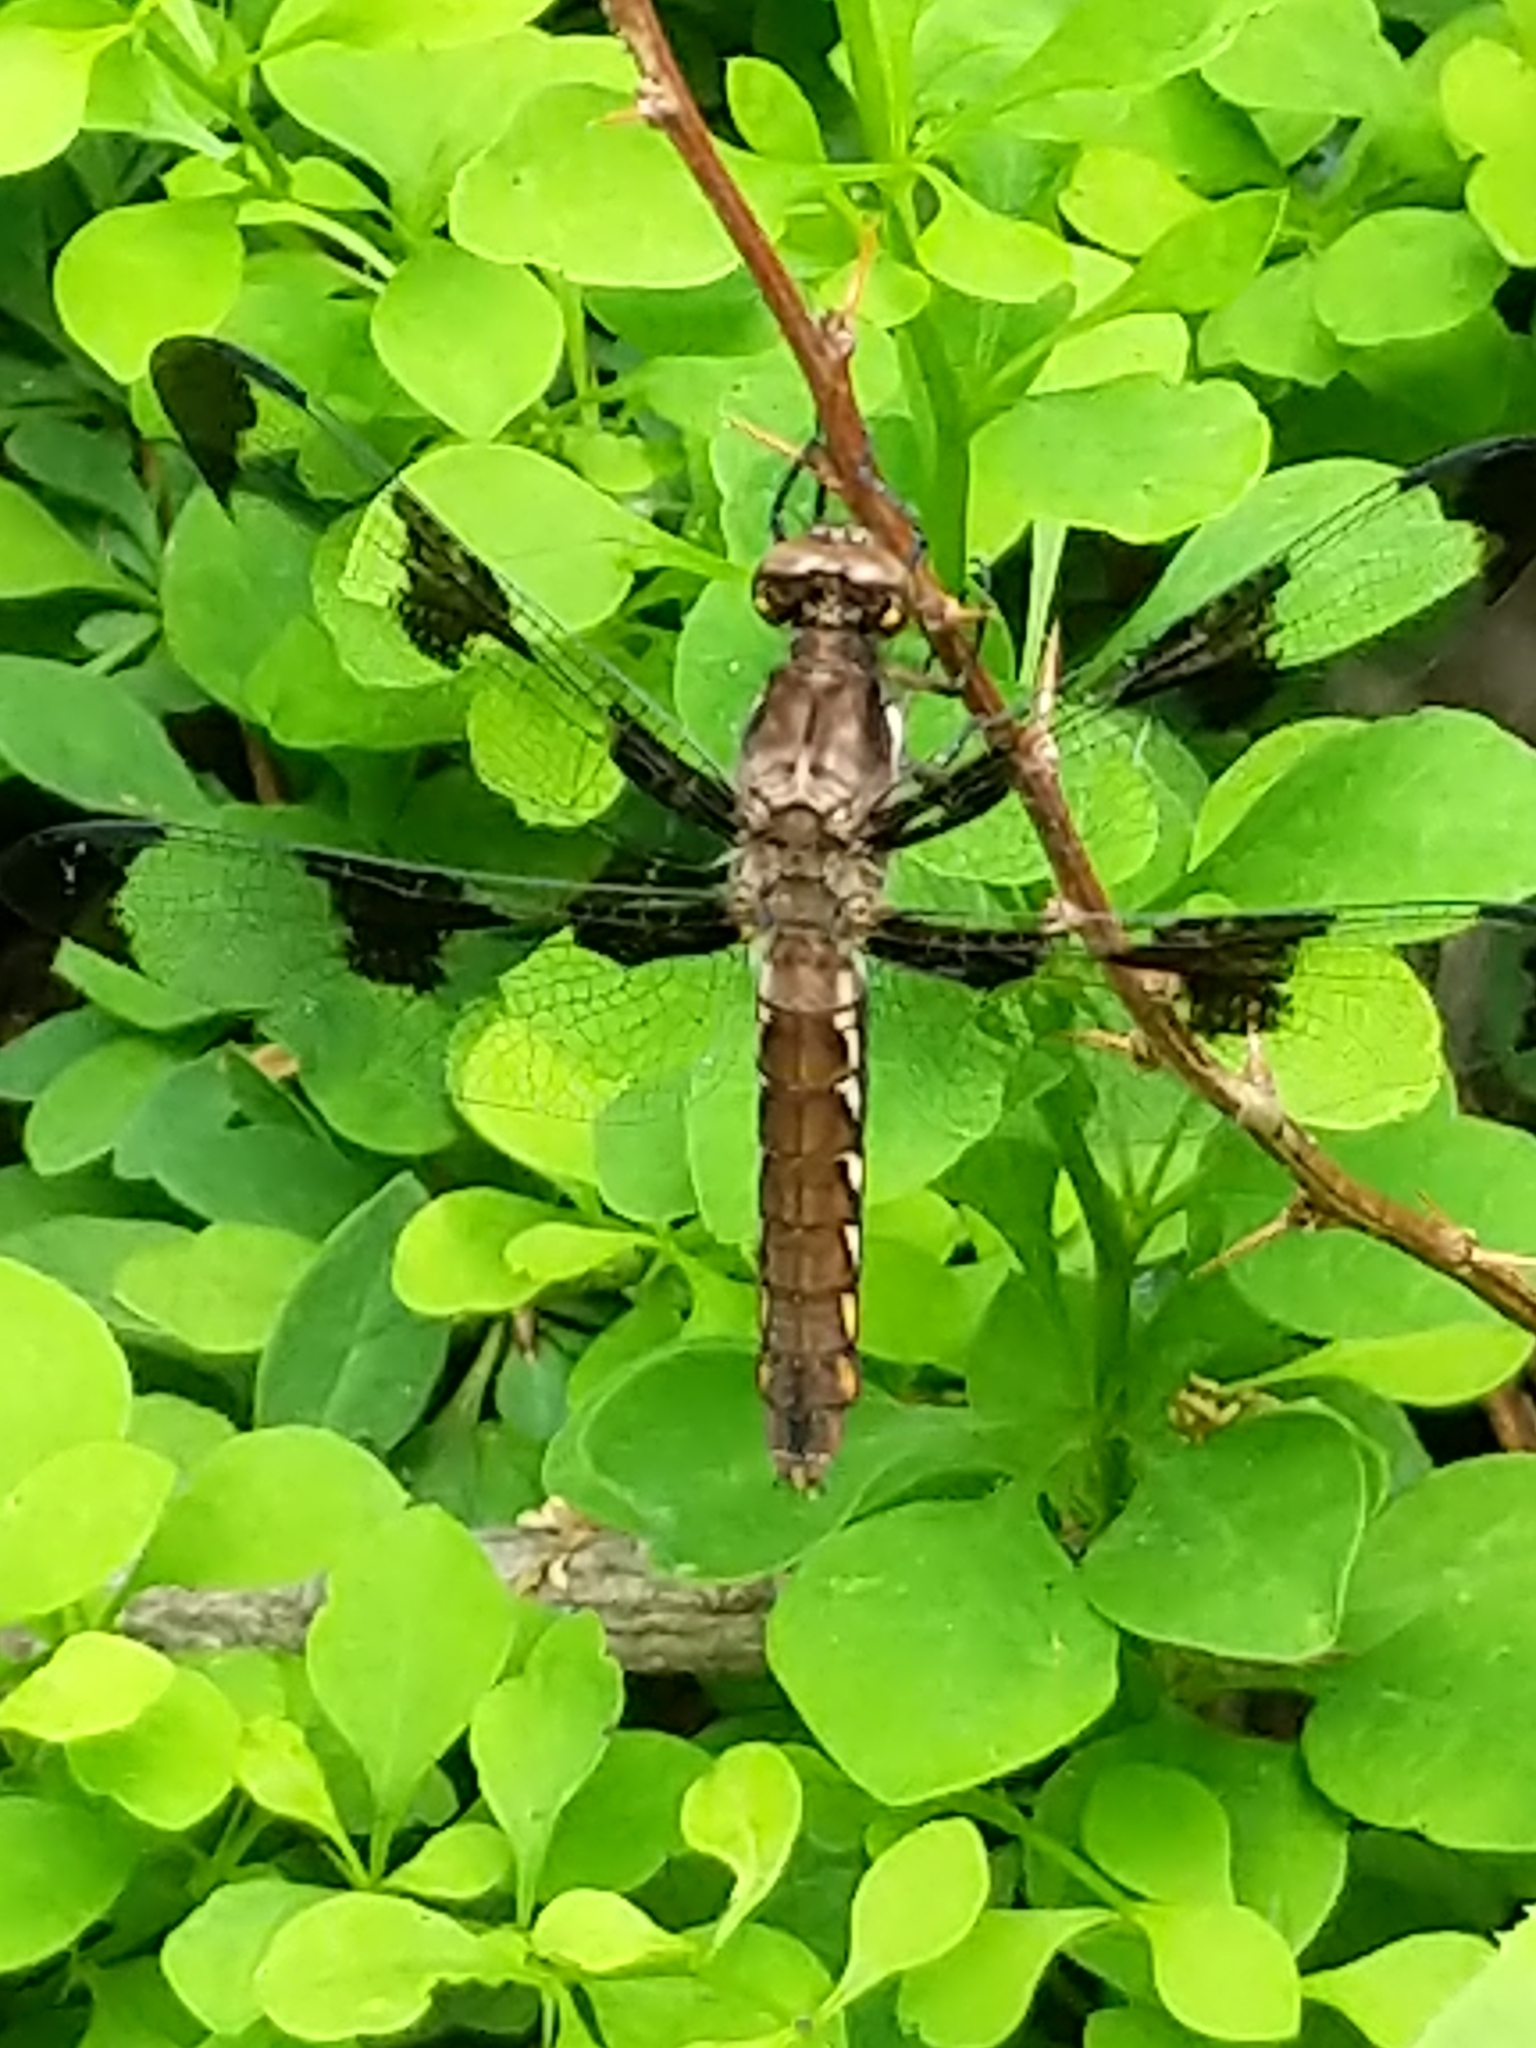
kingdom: Animalia
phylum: Arthropoda
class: Insecta
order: Odonata
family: Libellulidae
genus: Plathemis
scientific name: Plathemis lydia
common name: Common whitetail
